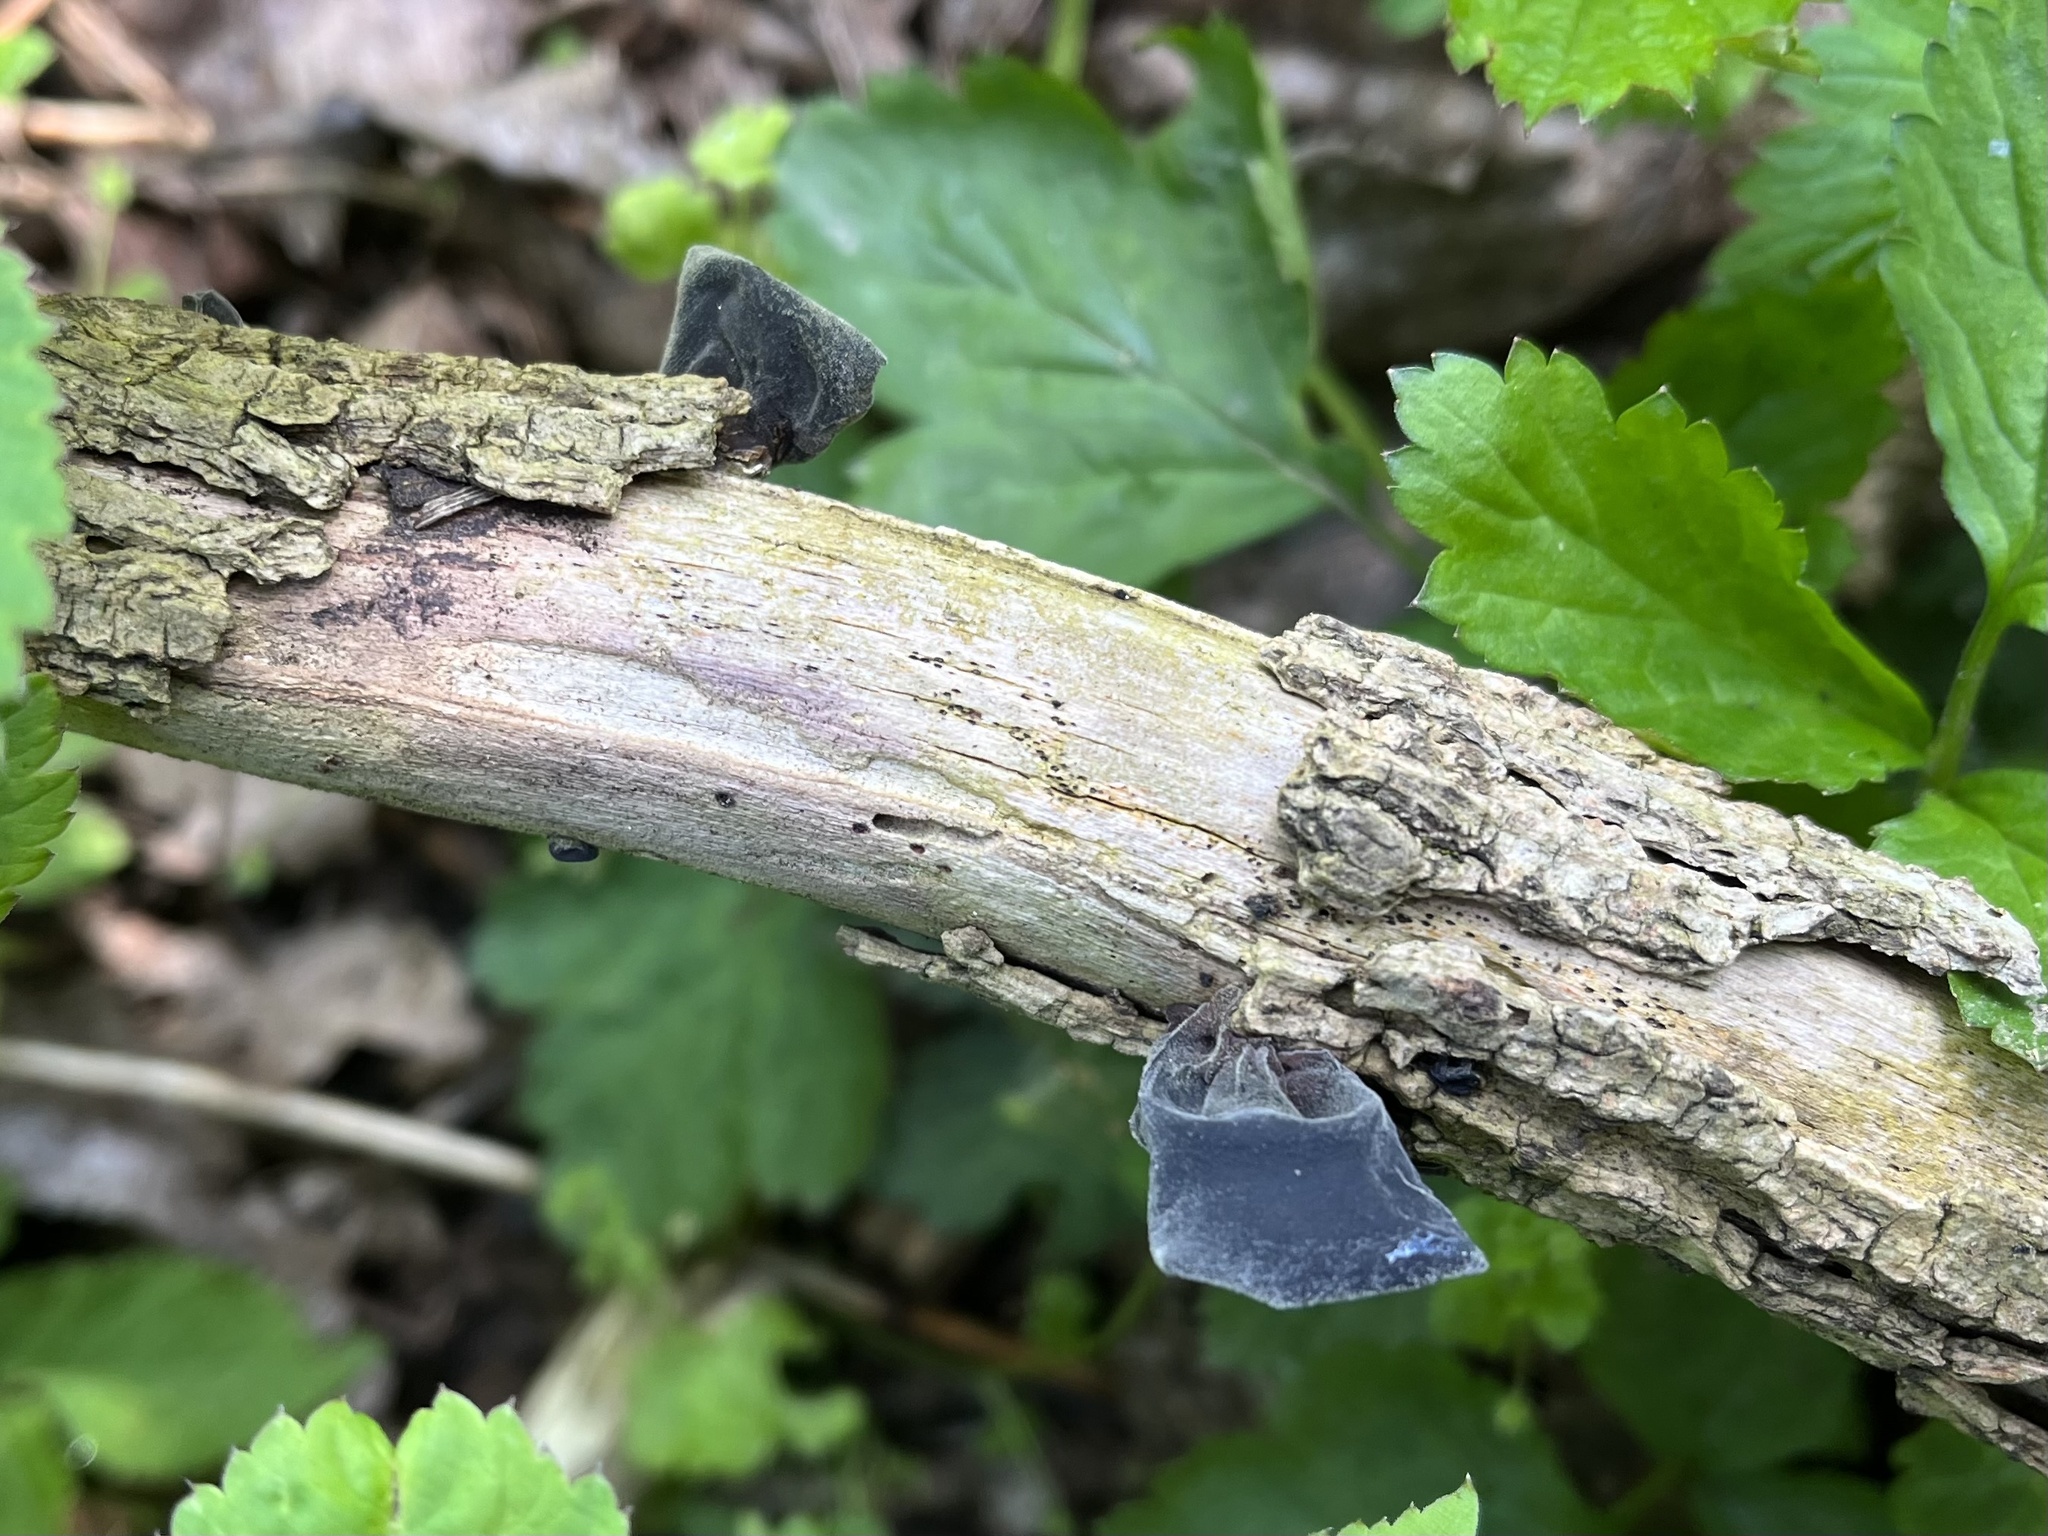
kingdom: Fungi
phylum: Basidiomycota
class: Agaricomycetes
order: Auriculariales
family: Auriculariaceae
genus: Auricularia
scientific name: Auricularia auricula-judae
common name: Jelly ear
